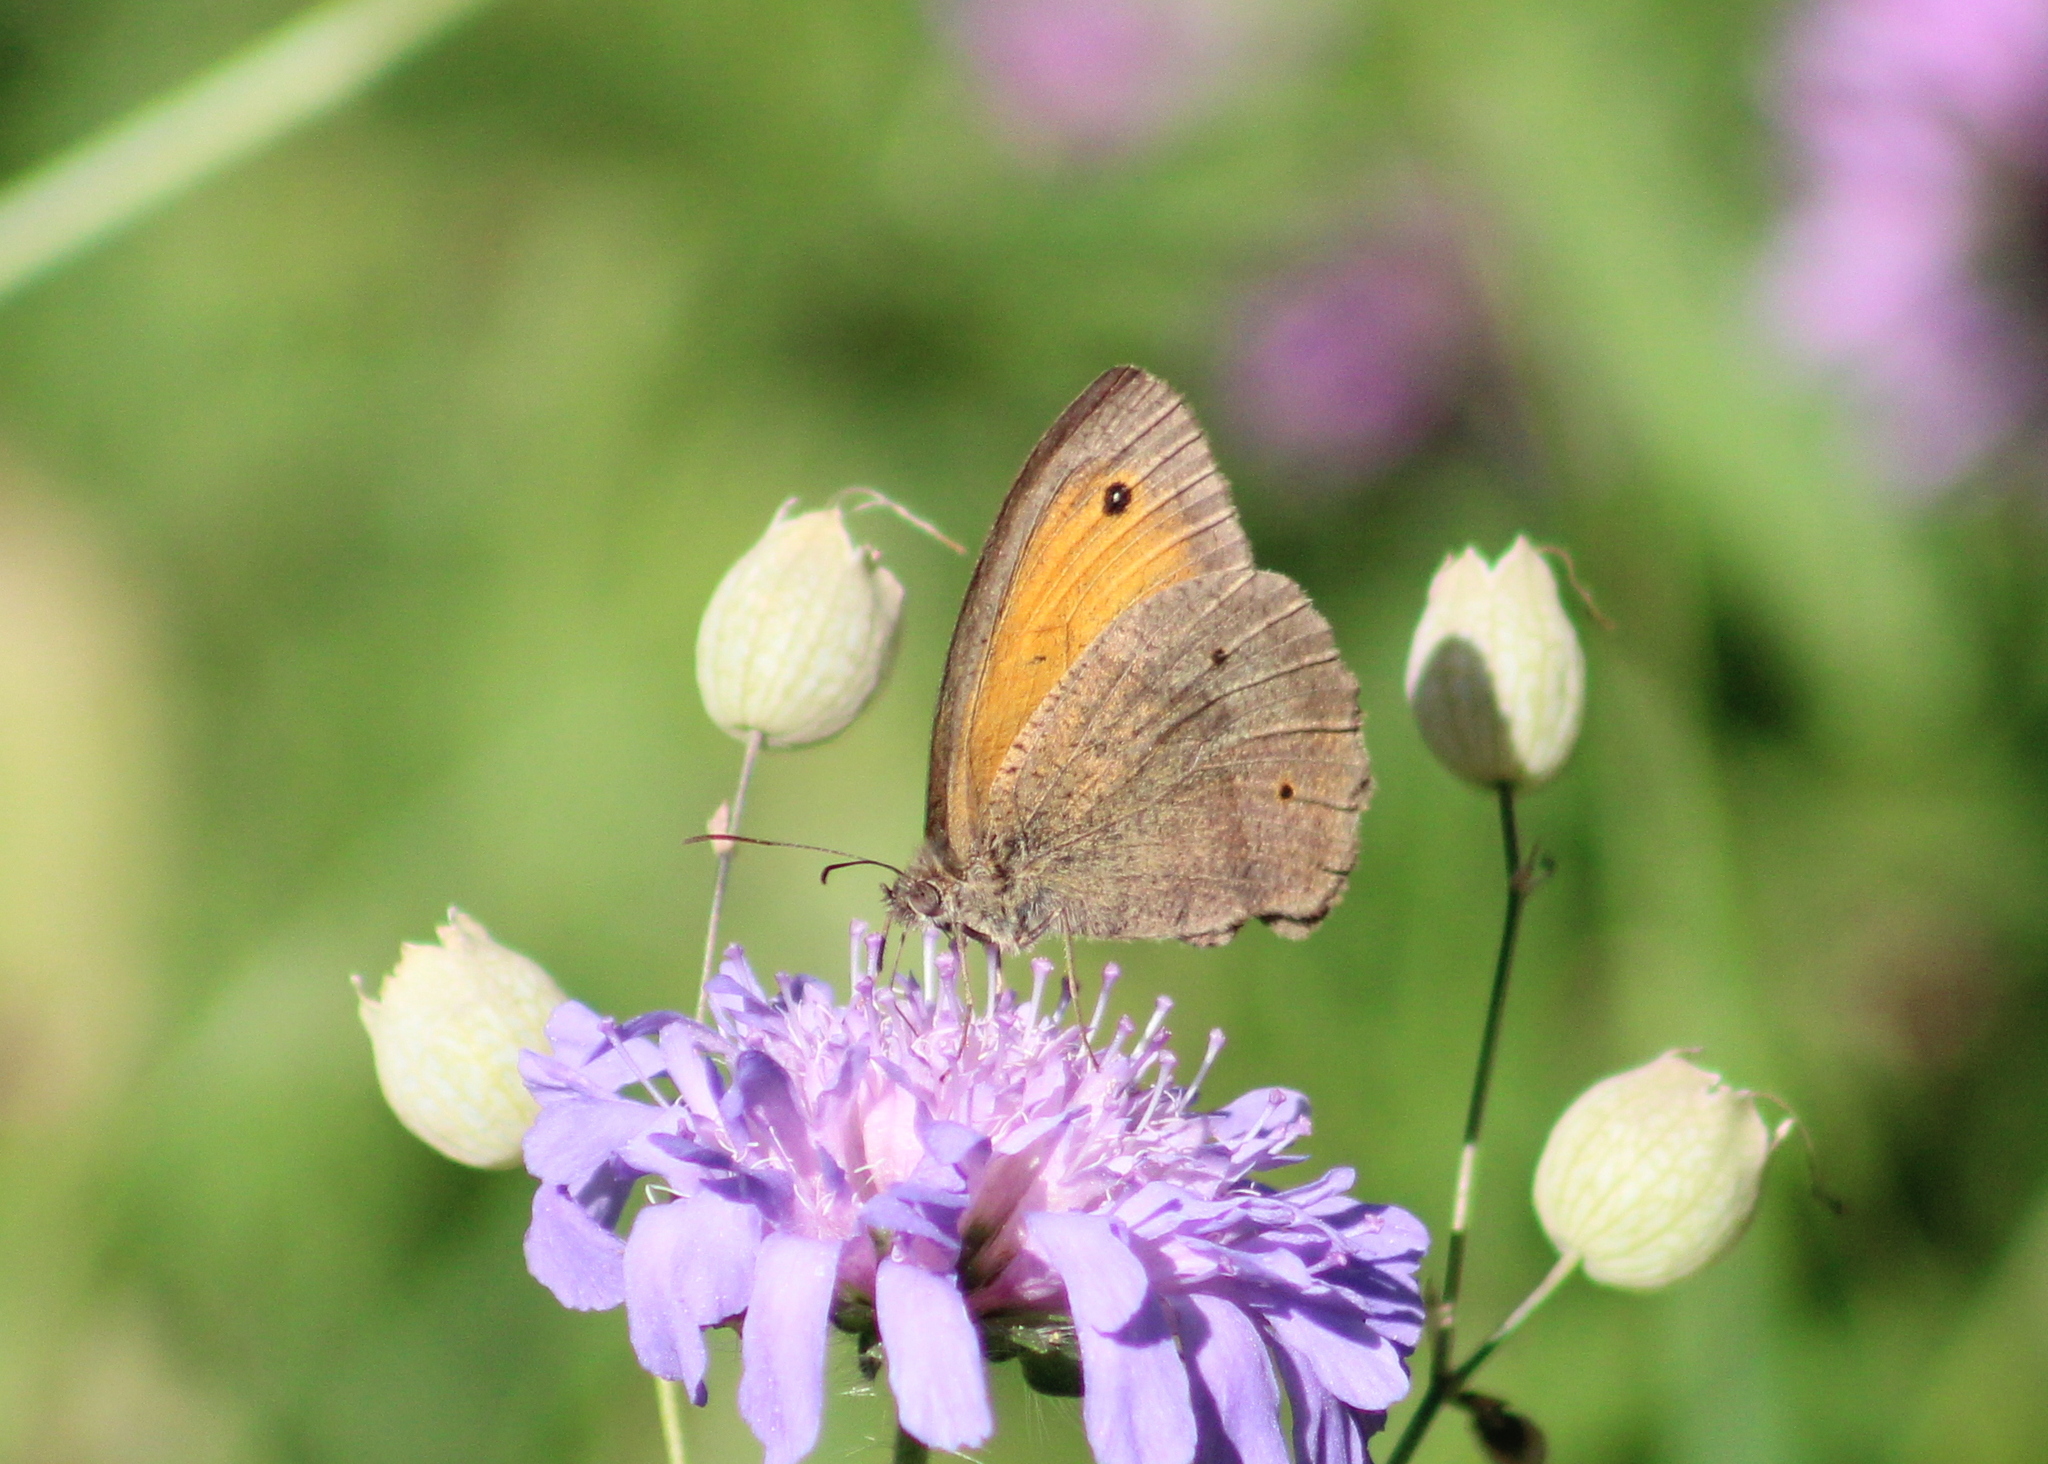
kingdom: Animalia
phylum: Arthropoda
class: Insecta
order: Lepidoptera
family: Nymphalidae
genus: Maniola
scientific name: Maniola jurtina
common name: Meadow brown
